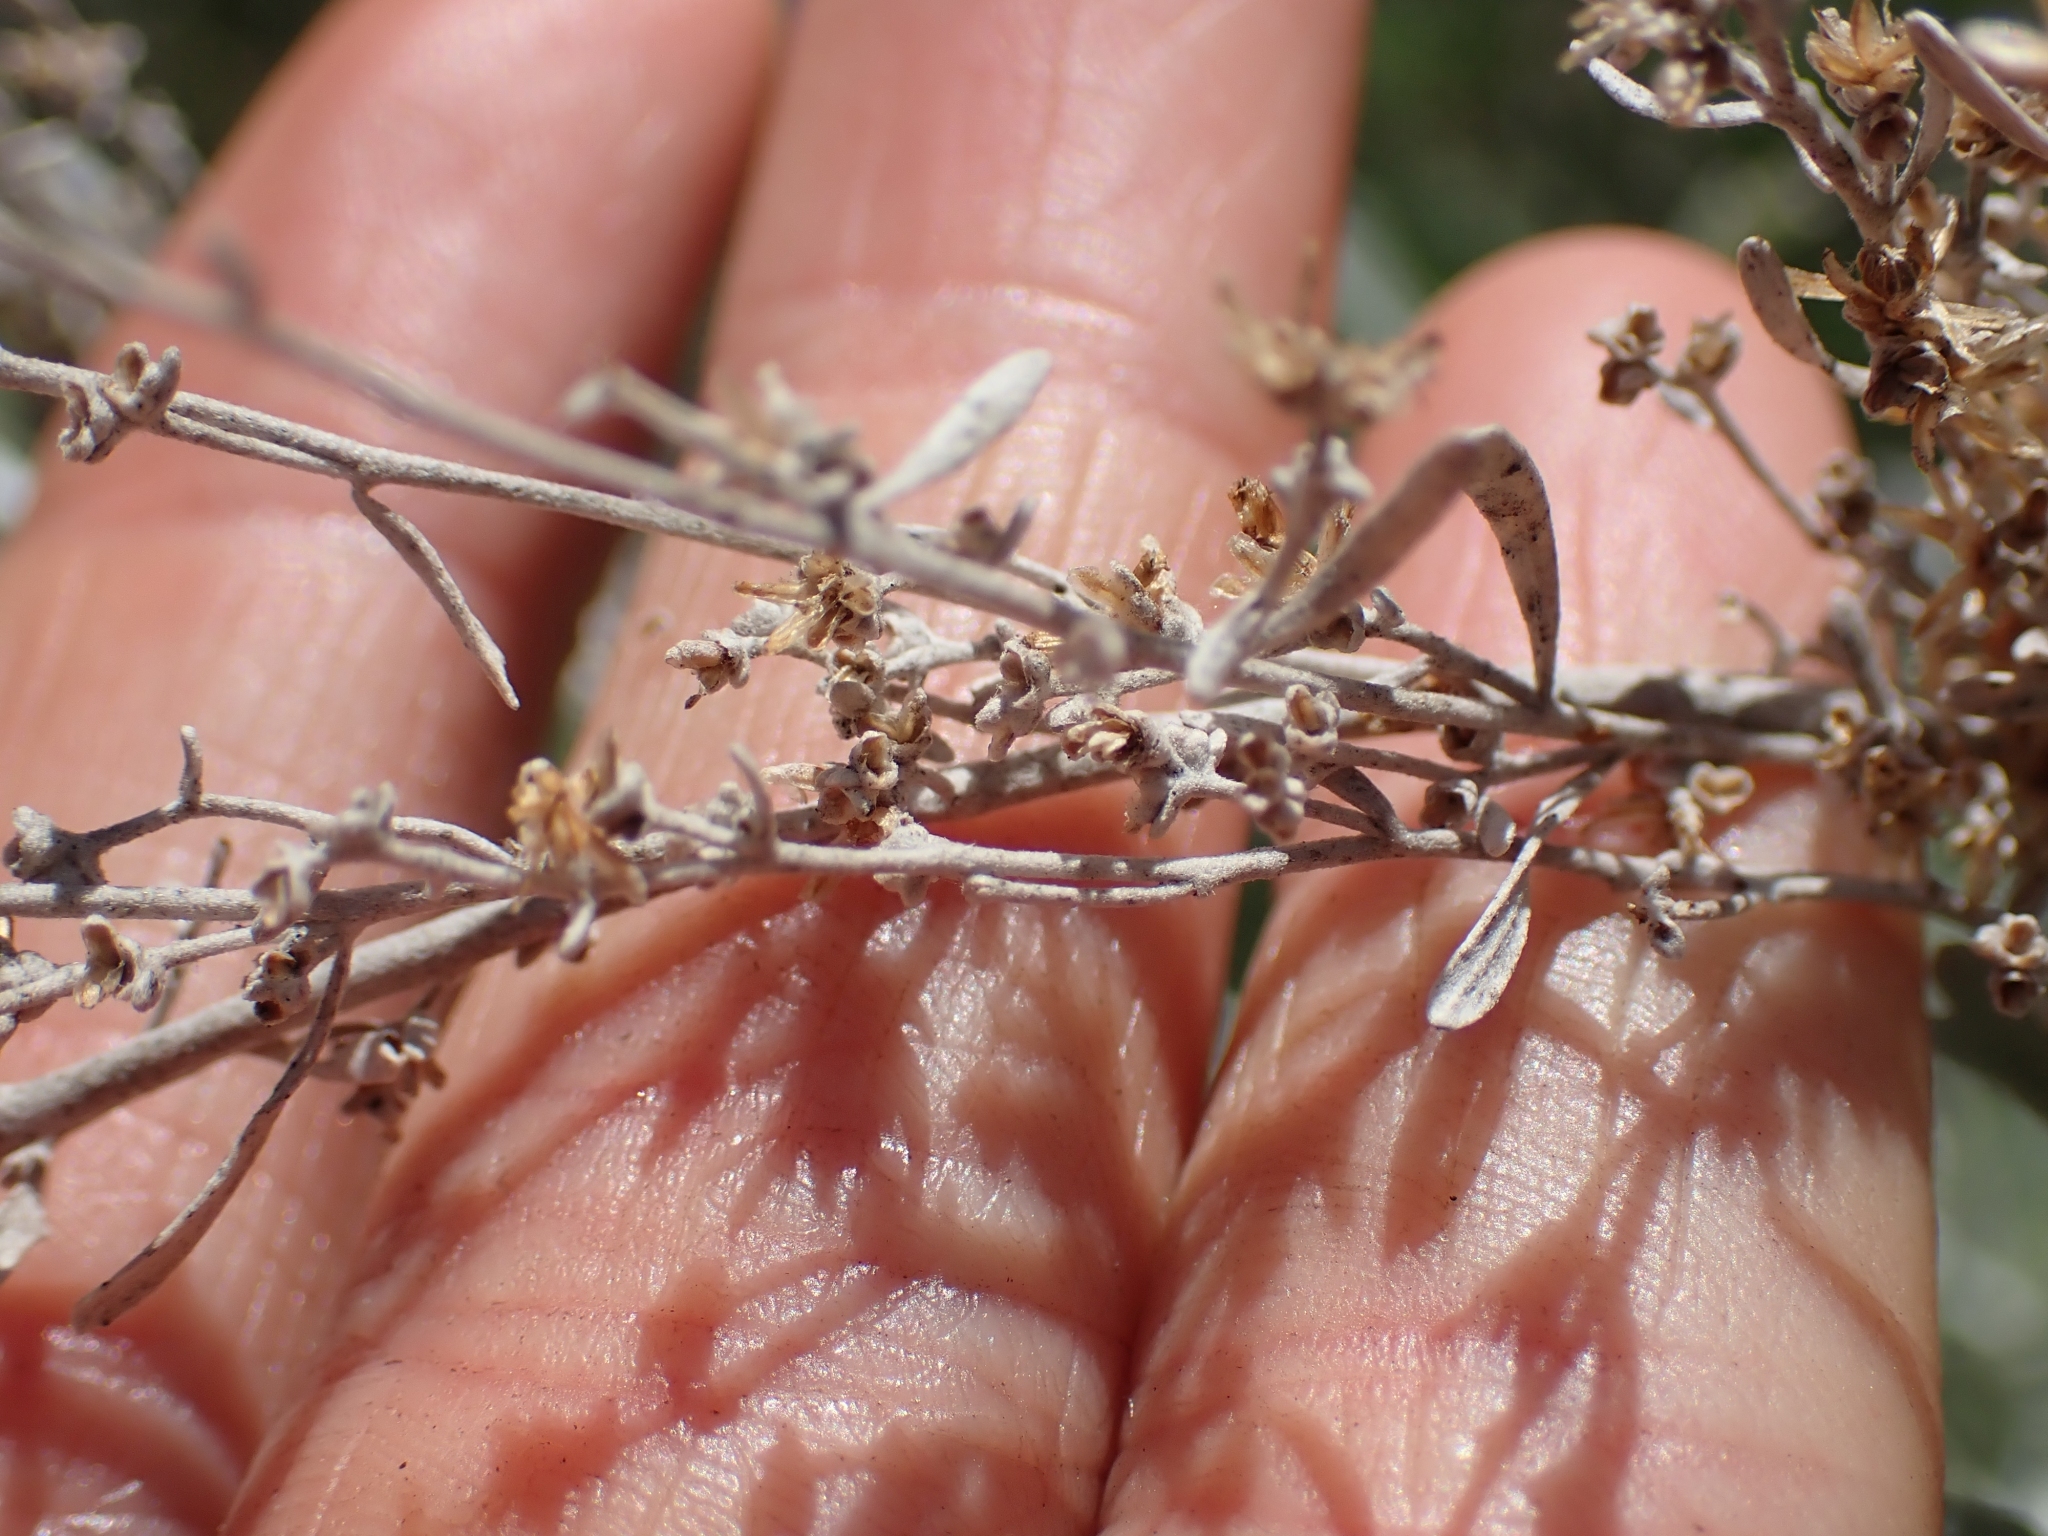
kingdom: Plantae
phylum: Tracheophyta
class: Magnoliopsida
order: Asterales
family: Asteraceae
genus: Artemisia
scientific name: Artemisia tridentata
